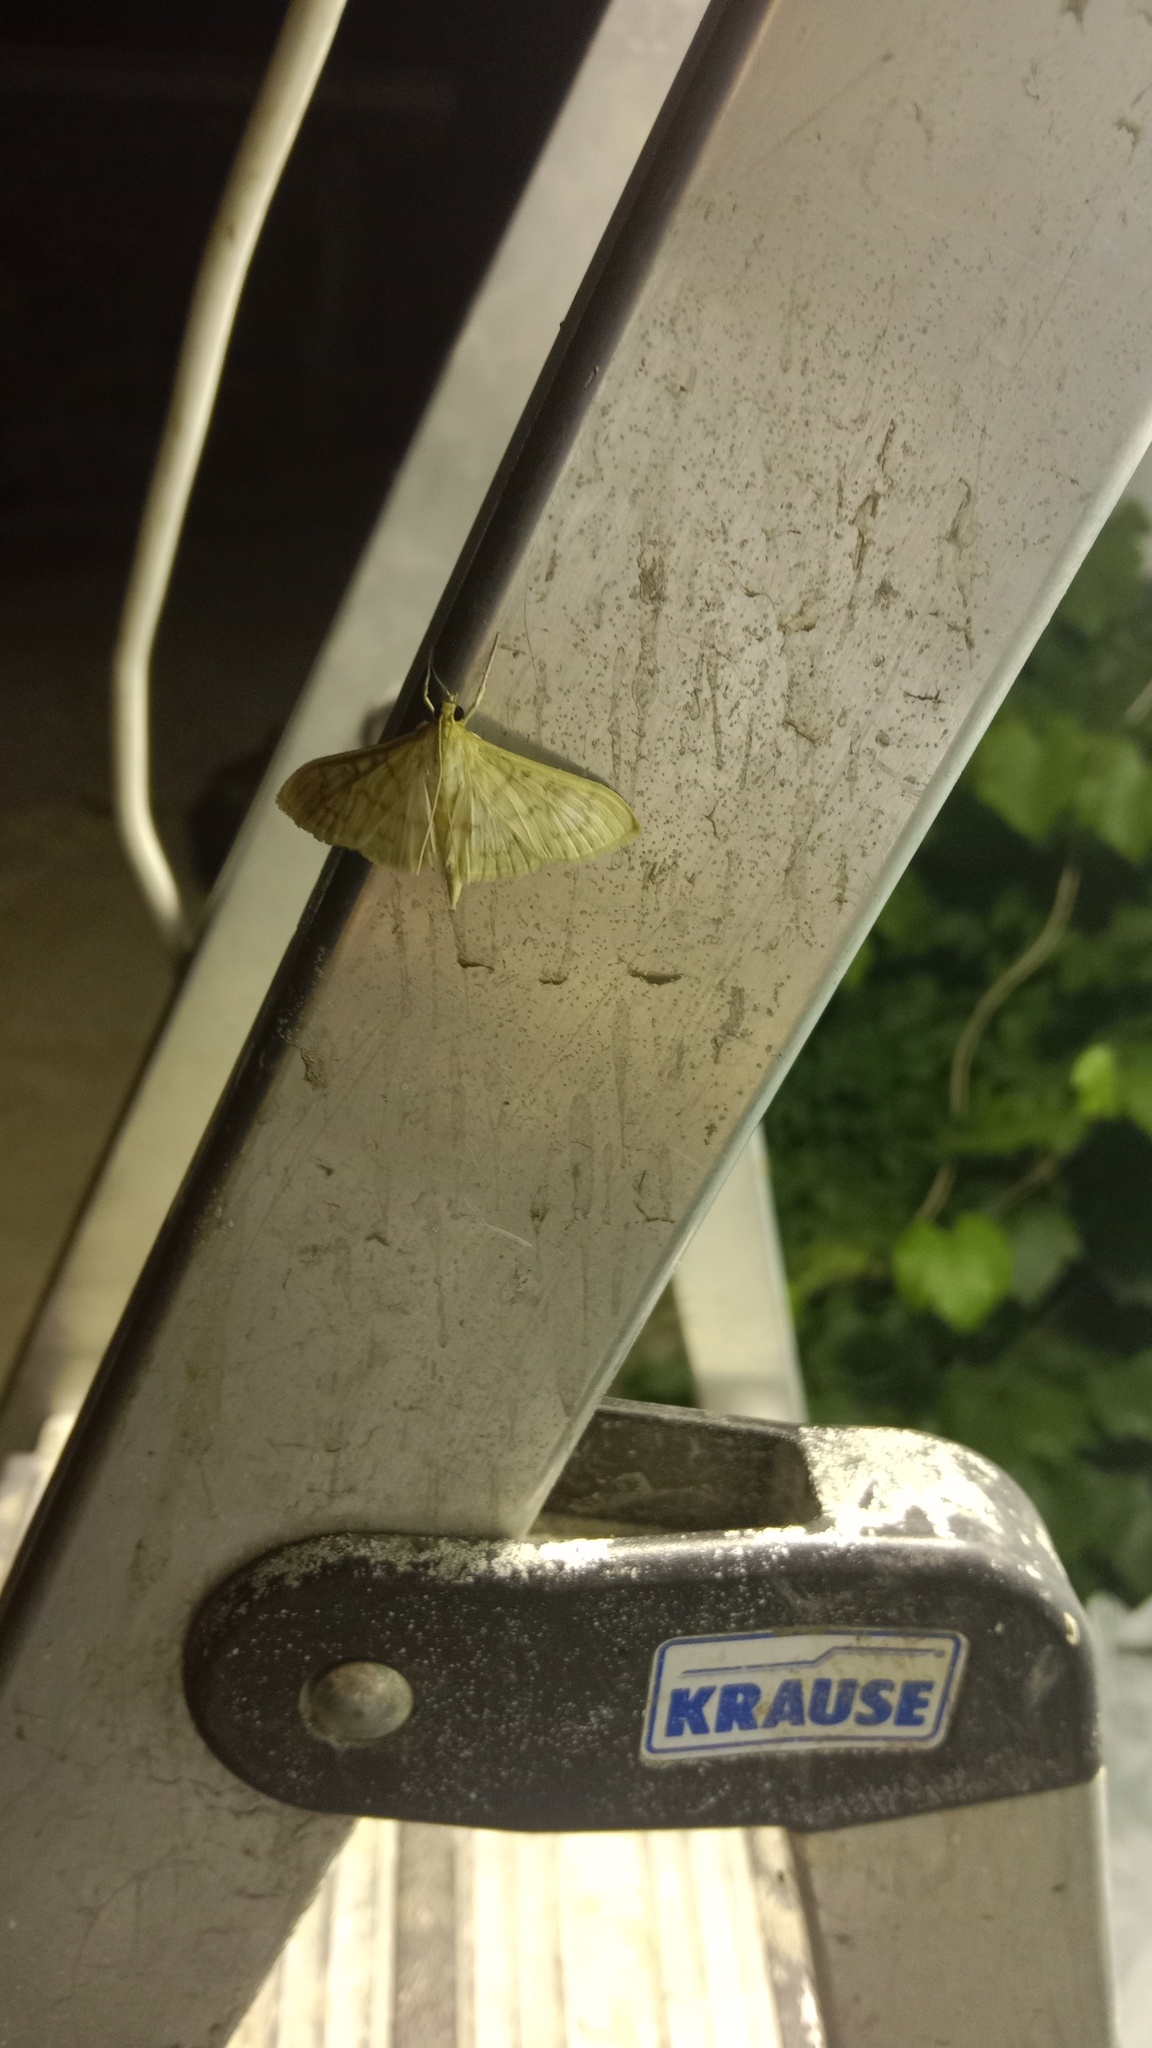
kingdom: Animalia
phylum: Arthropoda
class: Insecta
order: Lepidoptera
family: Crambidae
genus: Patania
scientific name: Patania ruralis
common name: Mother of pearl
